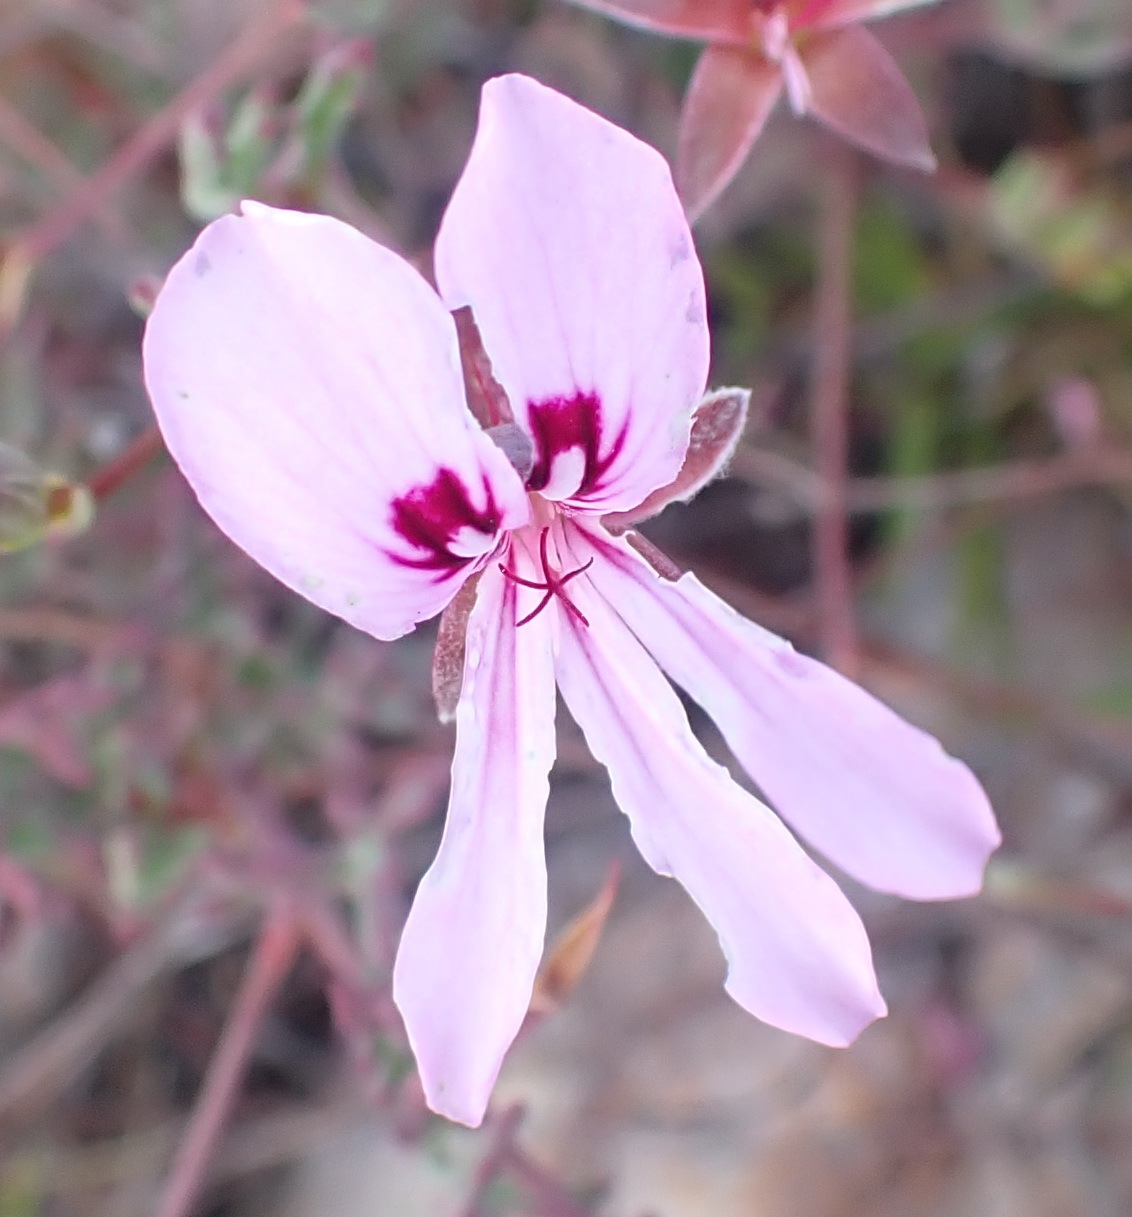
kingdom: Plantae
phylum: Tracheophyta
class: Magnoliopsida
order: Geraniales
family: Geraniaceae
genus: Pelargonium
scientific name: Pelargonium laevigatum
